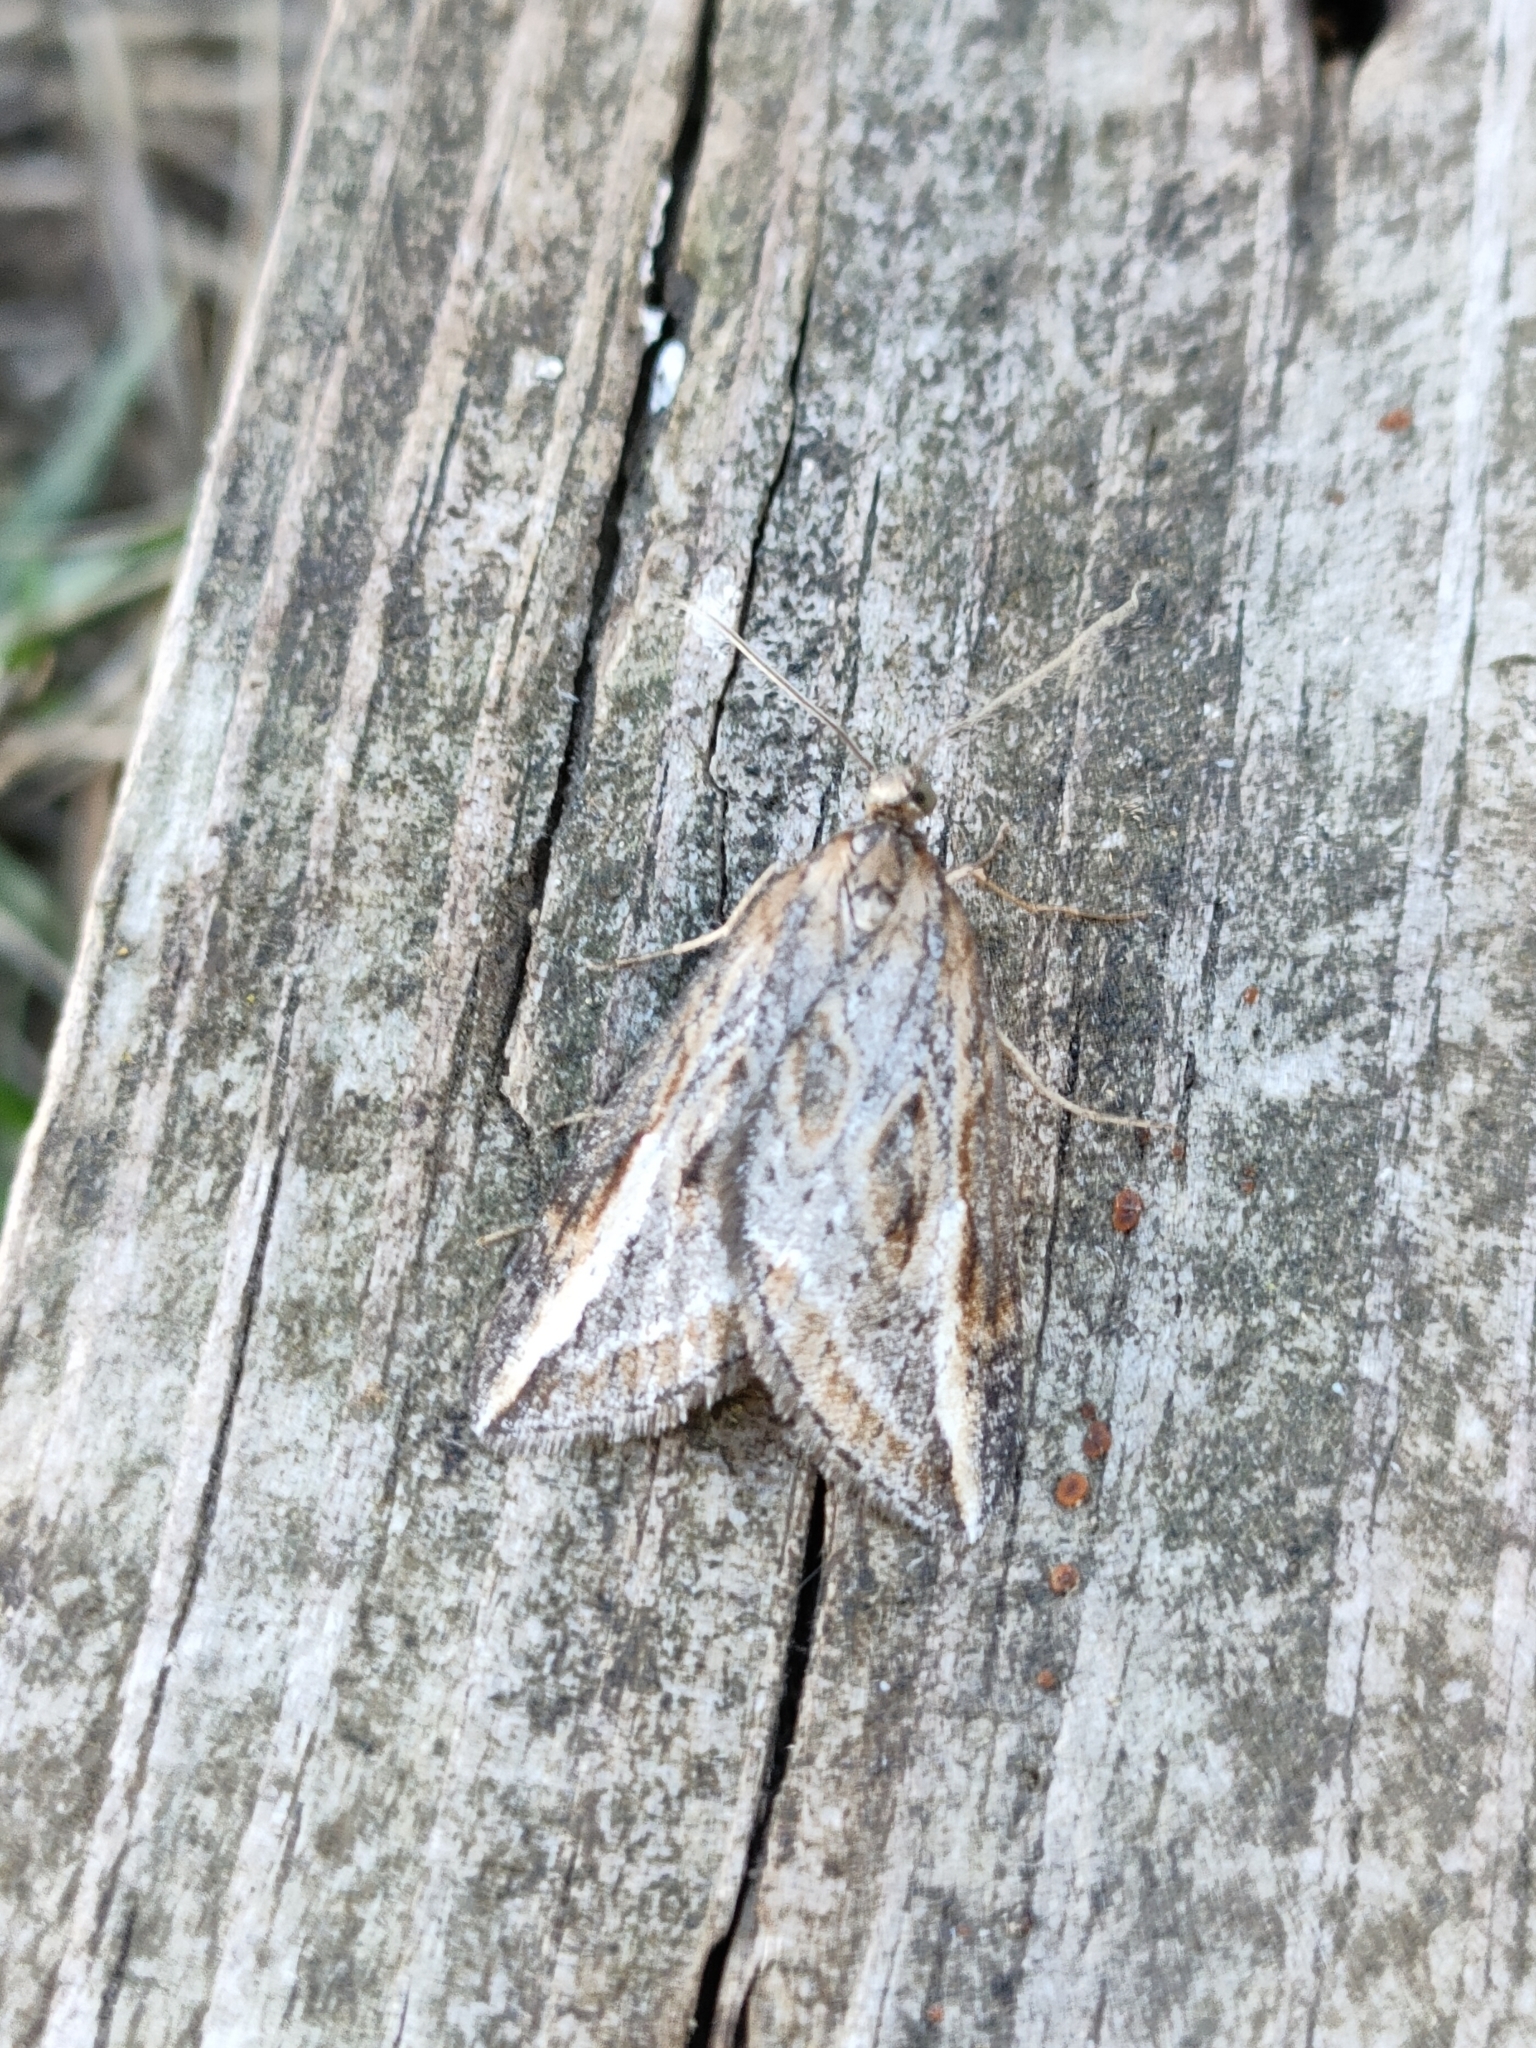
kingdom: Animalia
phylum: Arthropoda
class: Insecta
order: Lepidoptera
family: Geometridae
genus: Chesias
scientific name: Chesias legatella
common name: Streak
